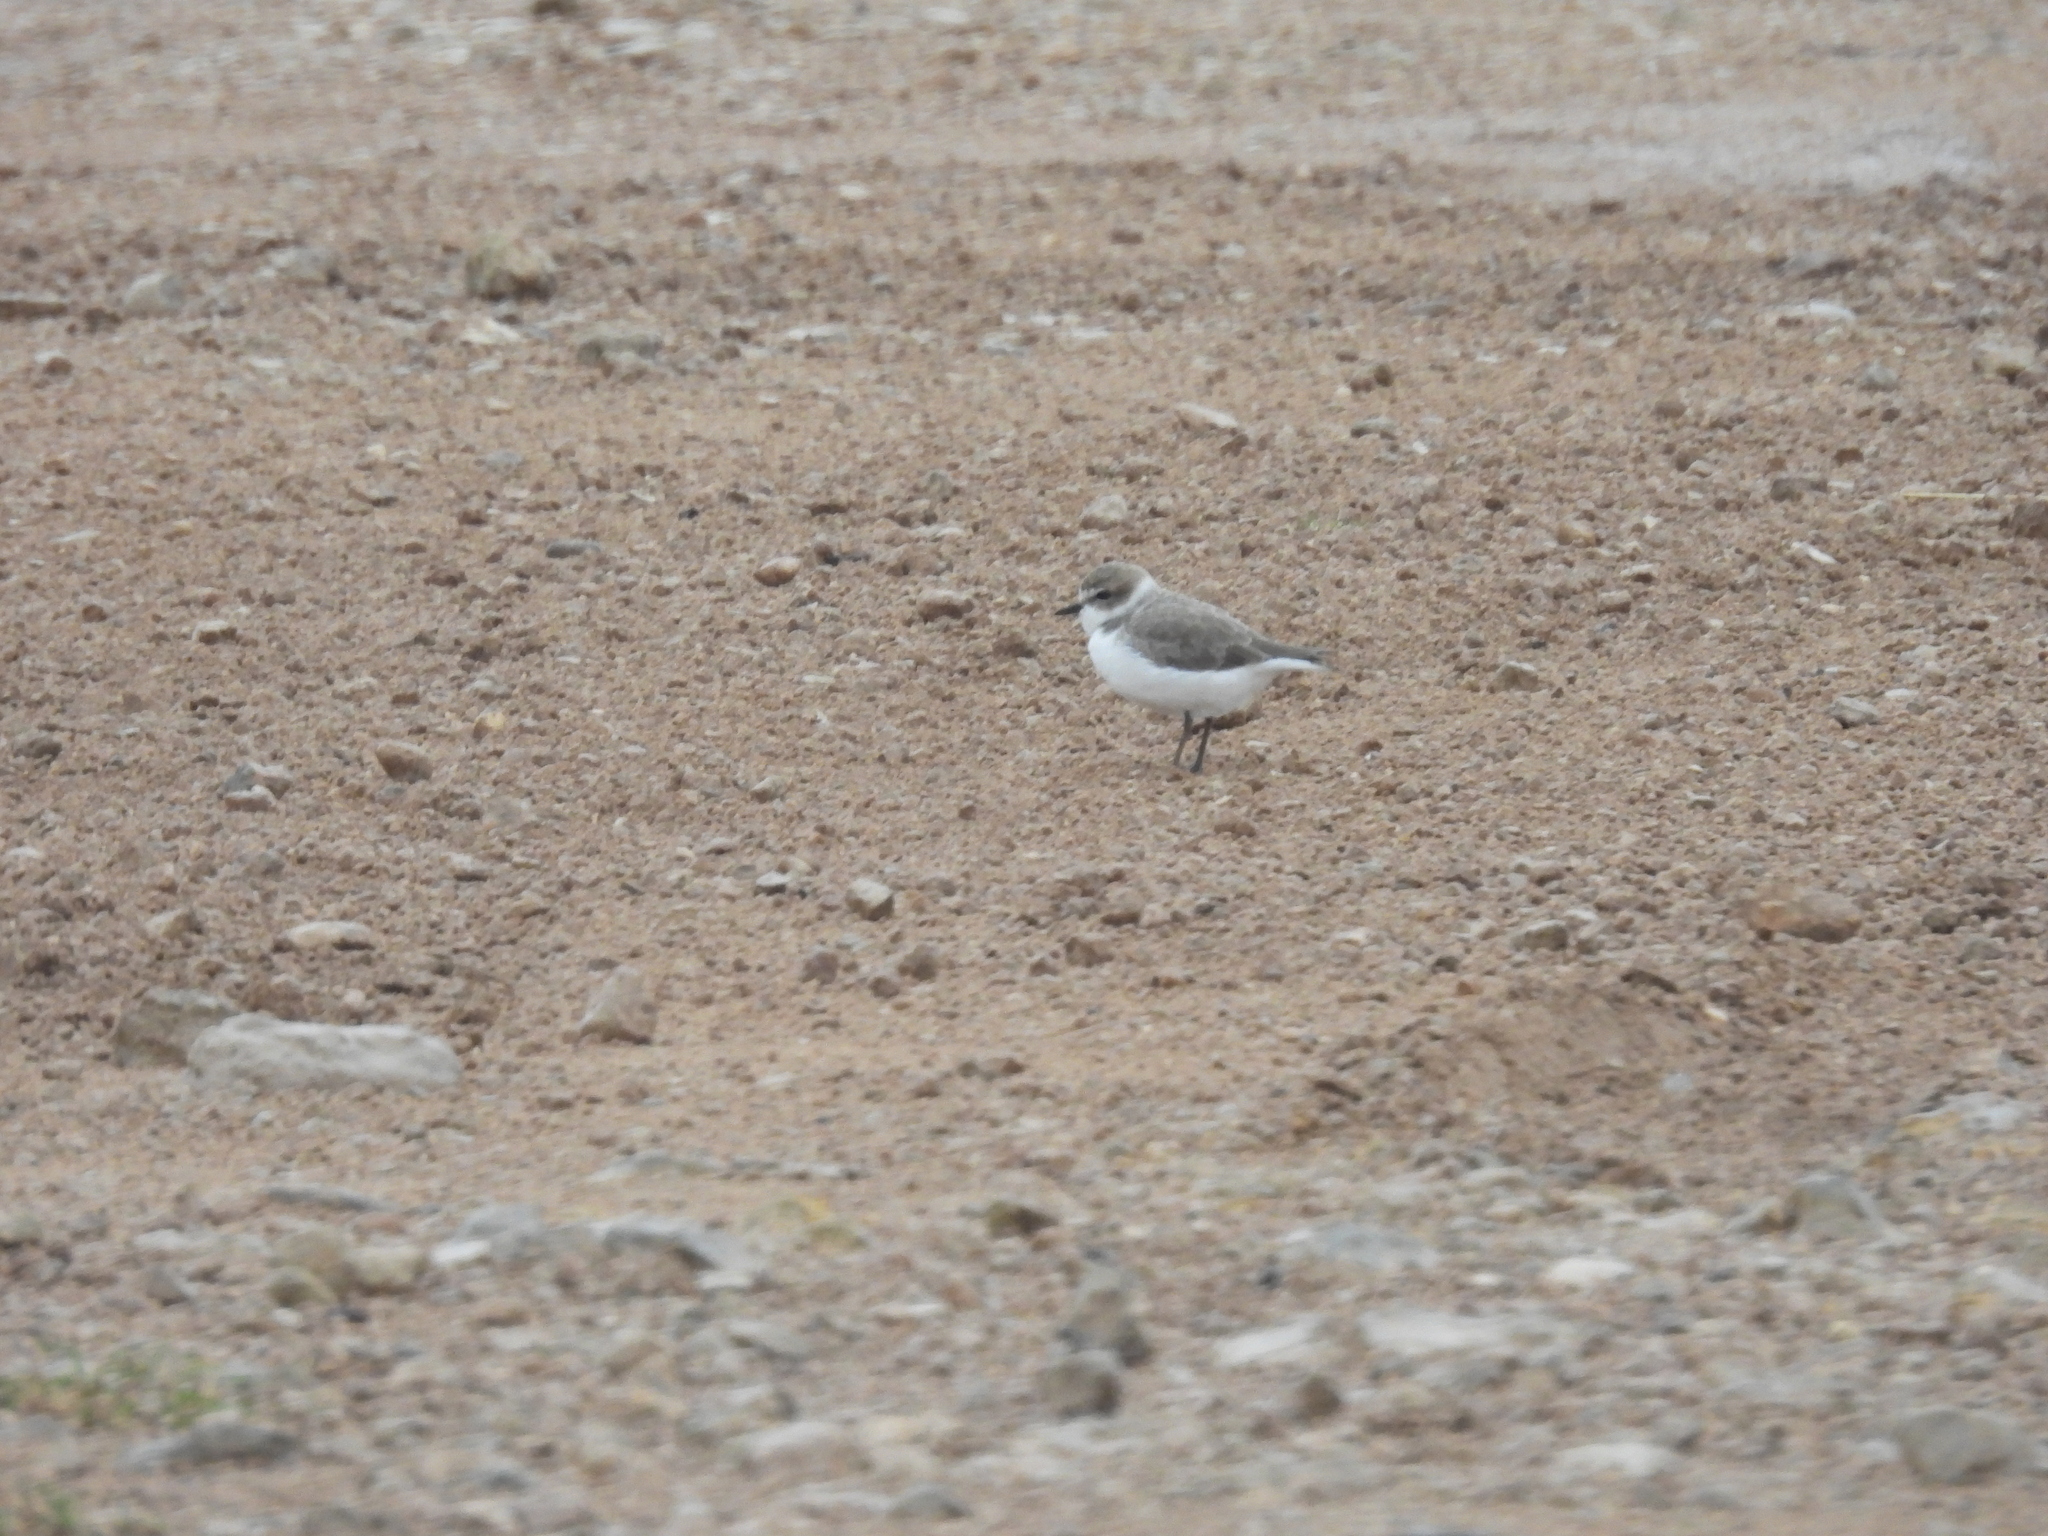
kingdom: Animalia
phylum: Chordata
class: Aves
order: Charadriiformes
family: Charadriidae
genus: Anarhynchus
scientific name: Anarhynchus
